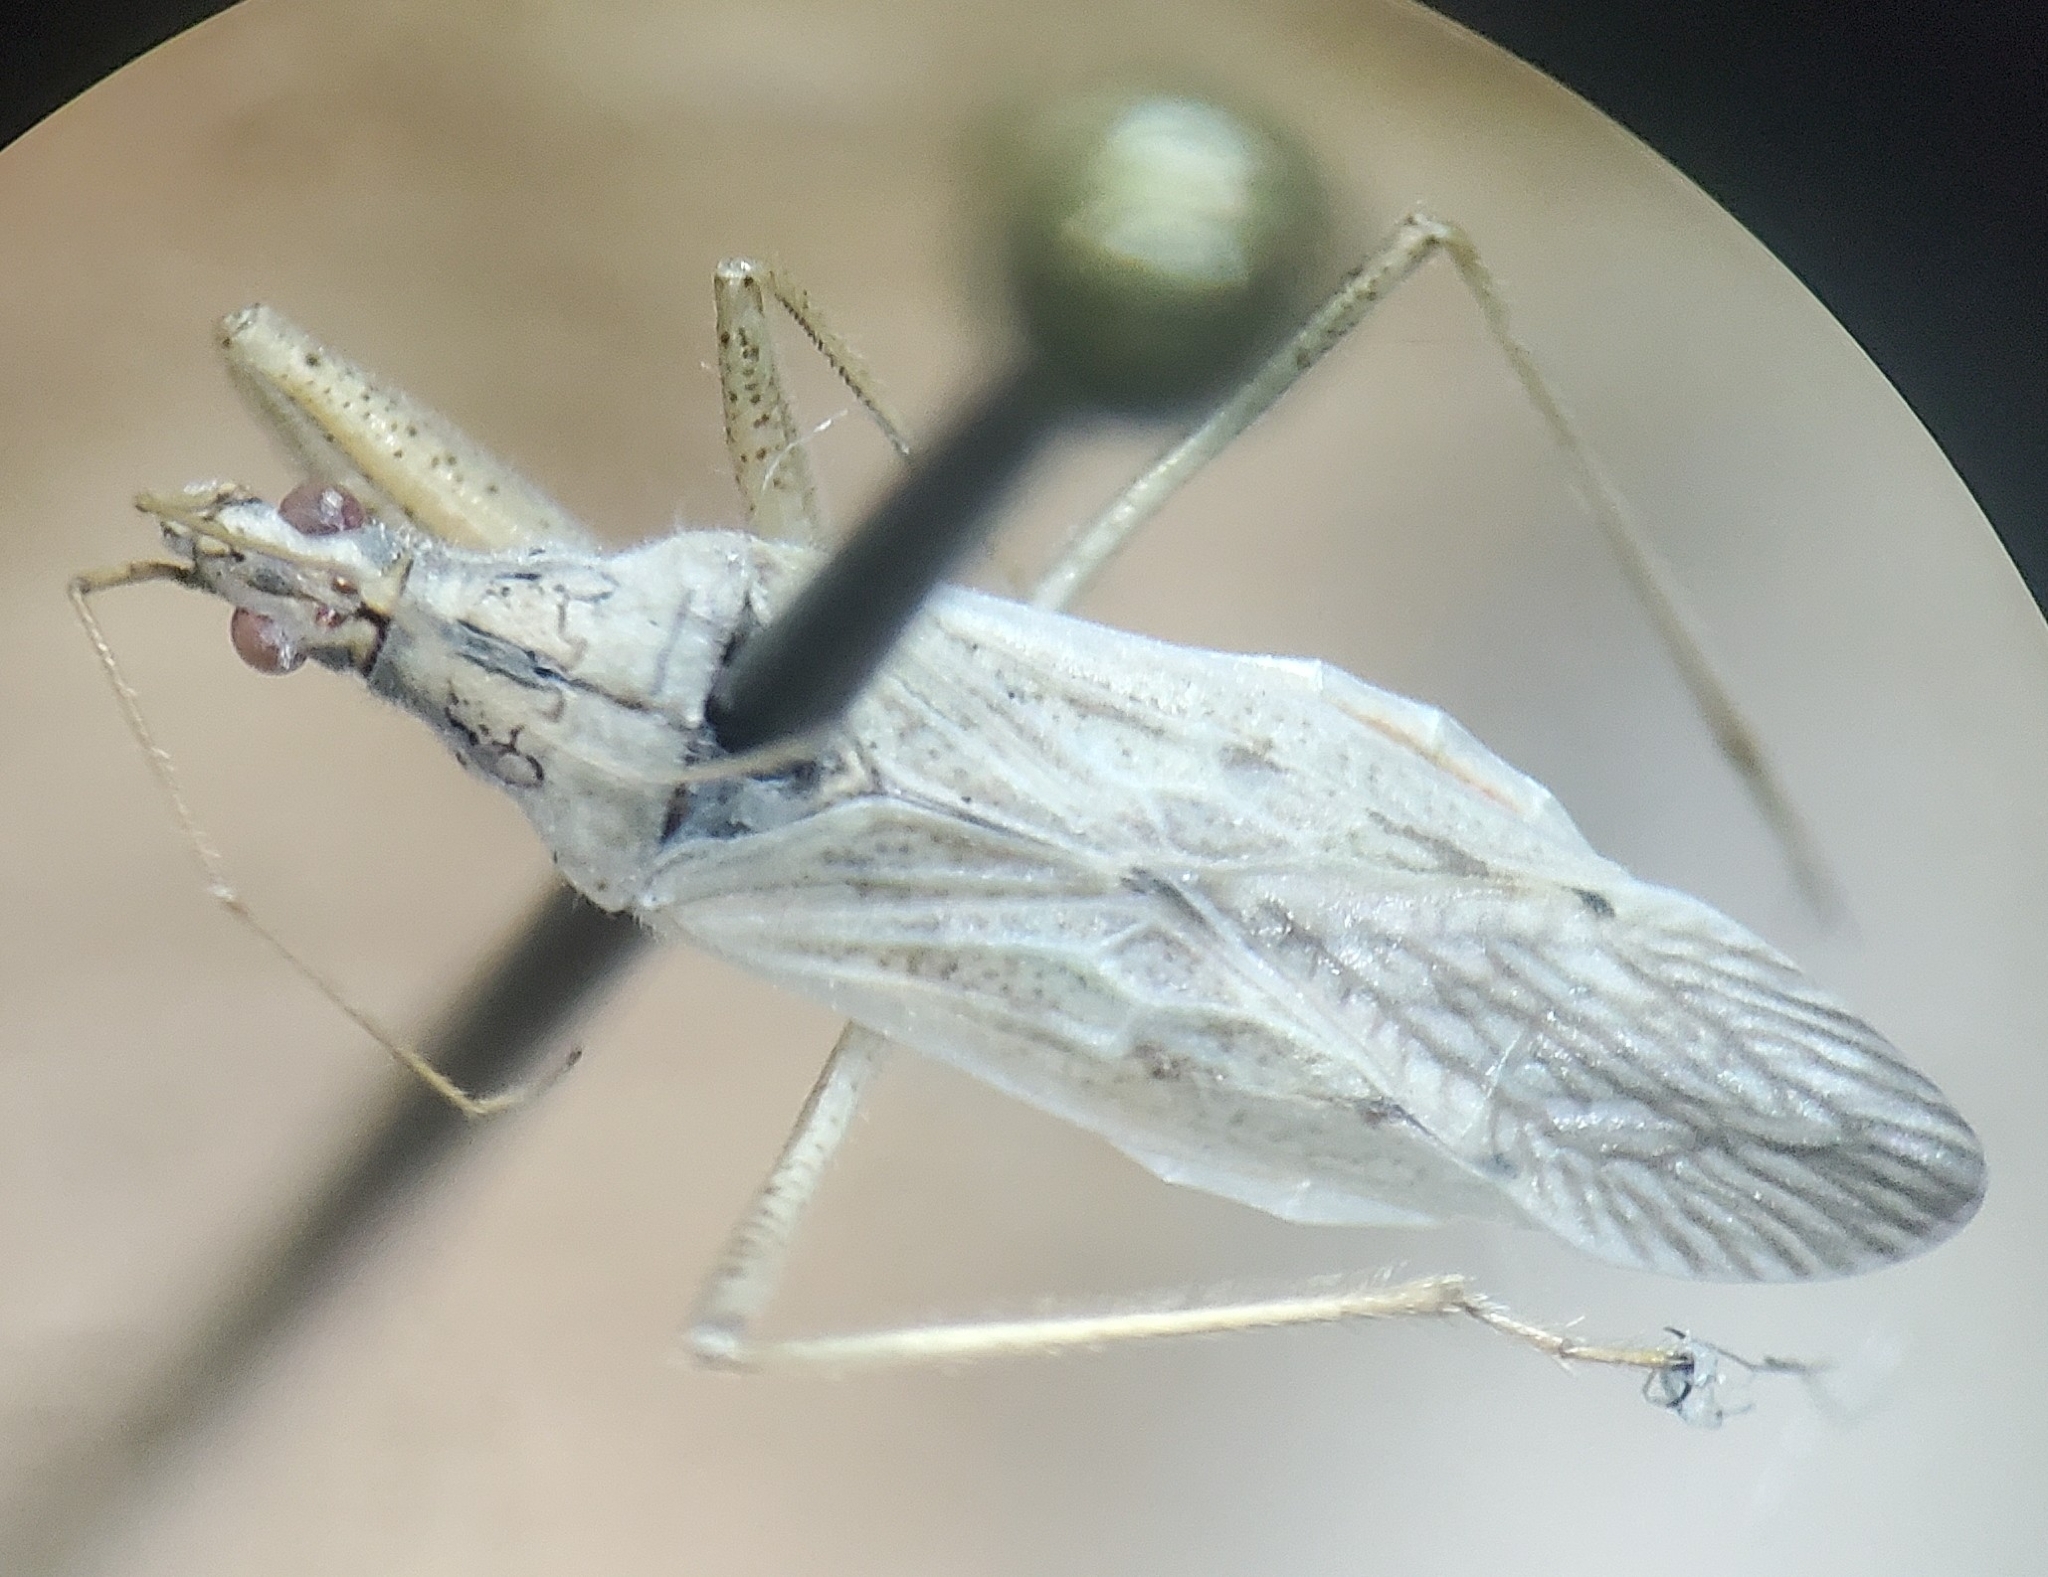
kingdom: Animalia
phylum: Arthropoda
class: Insecta
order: Hemiptera
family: Nabidae
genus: Nabis
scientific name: Nabis americoferus
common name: Common damsel bug
